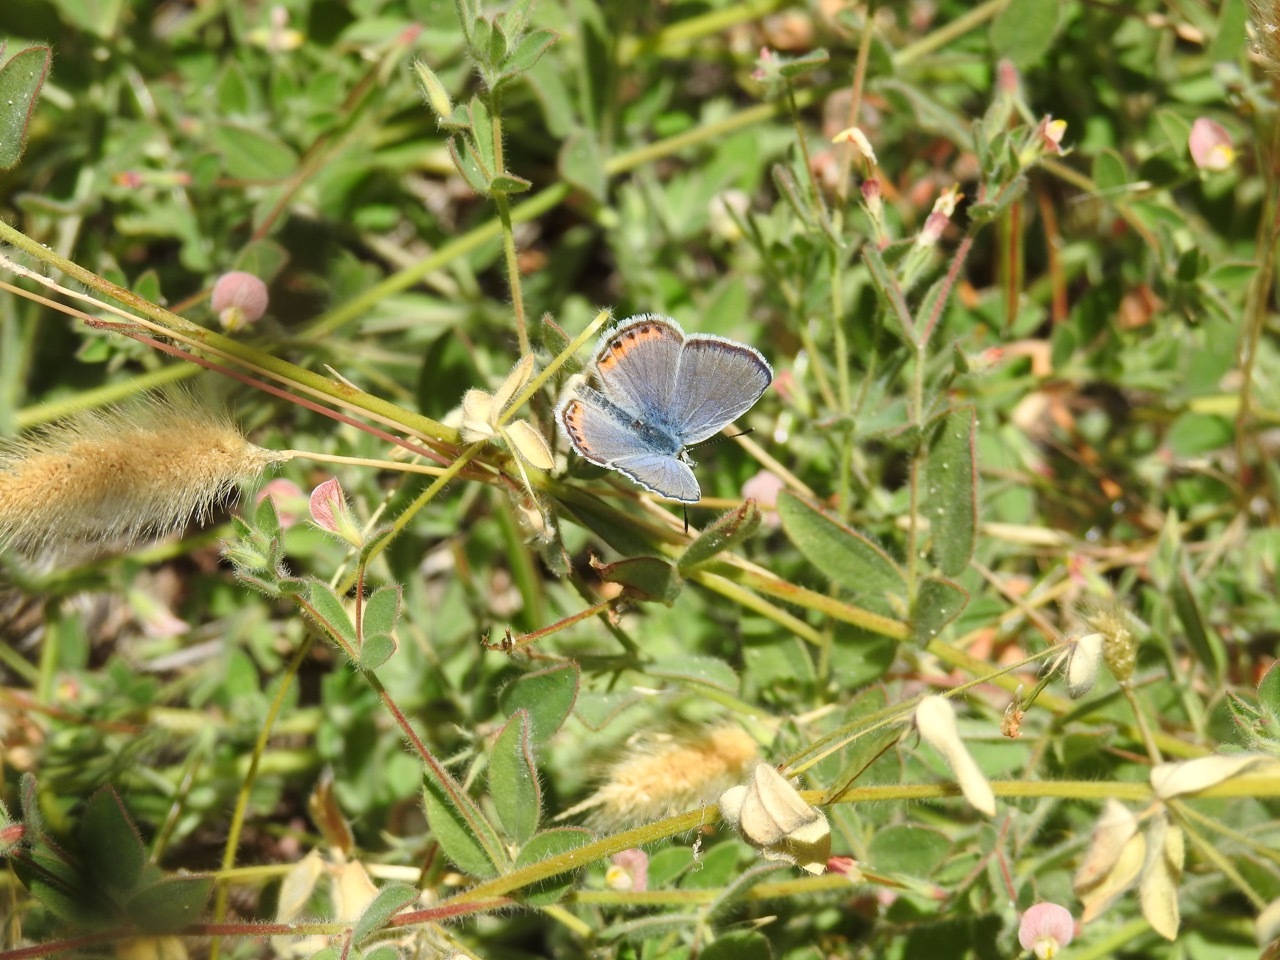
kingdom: Animalia
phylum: Arthropoda
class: Insecta
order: Lepidoptera
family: Lycaenidae
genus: Icaricia
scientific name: Icaricia acmon
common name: Acmon blue
